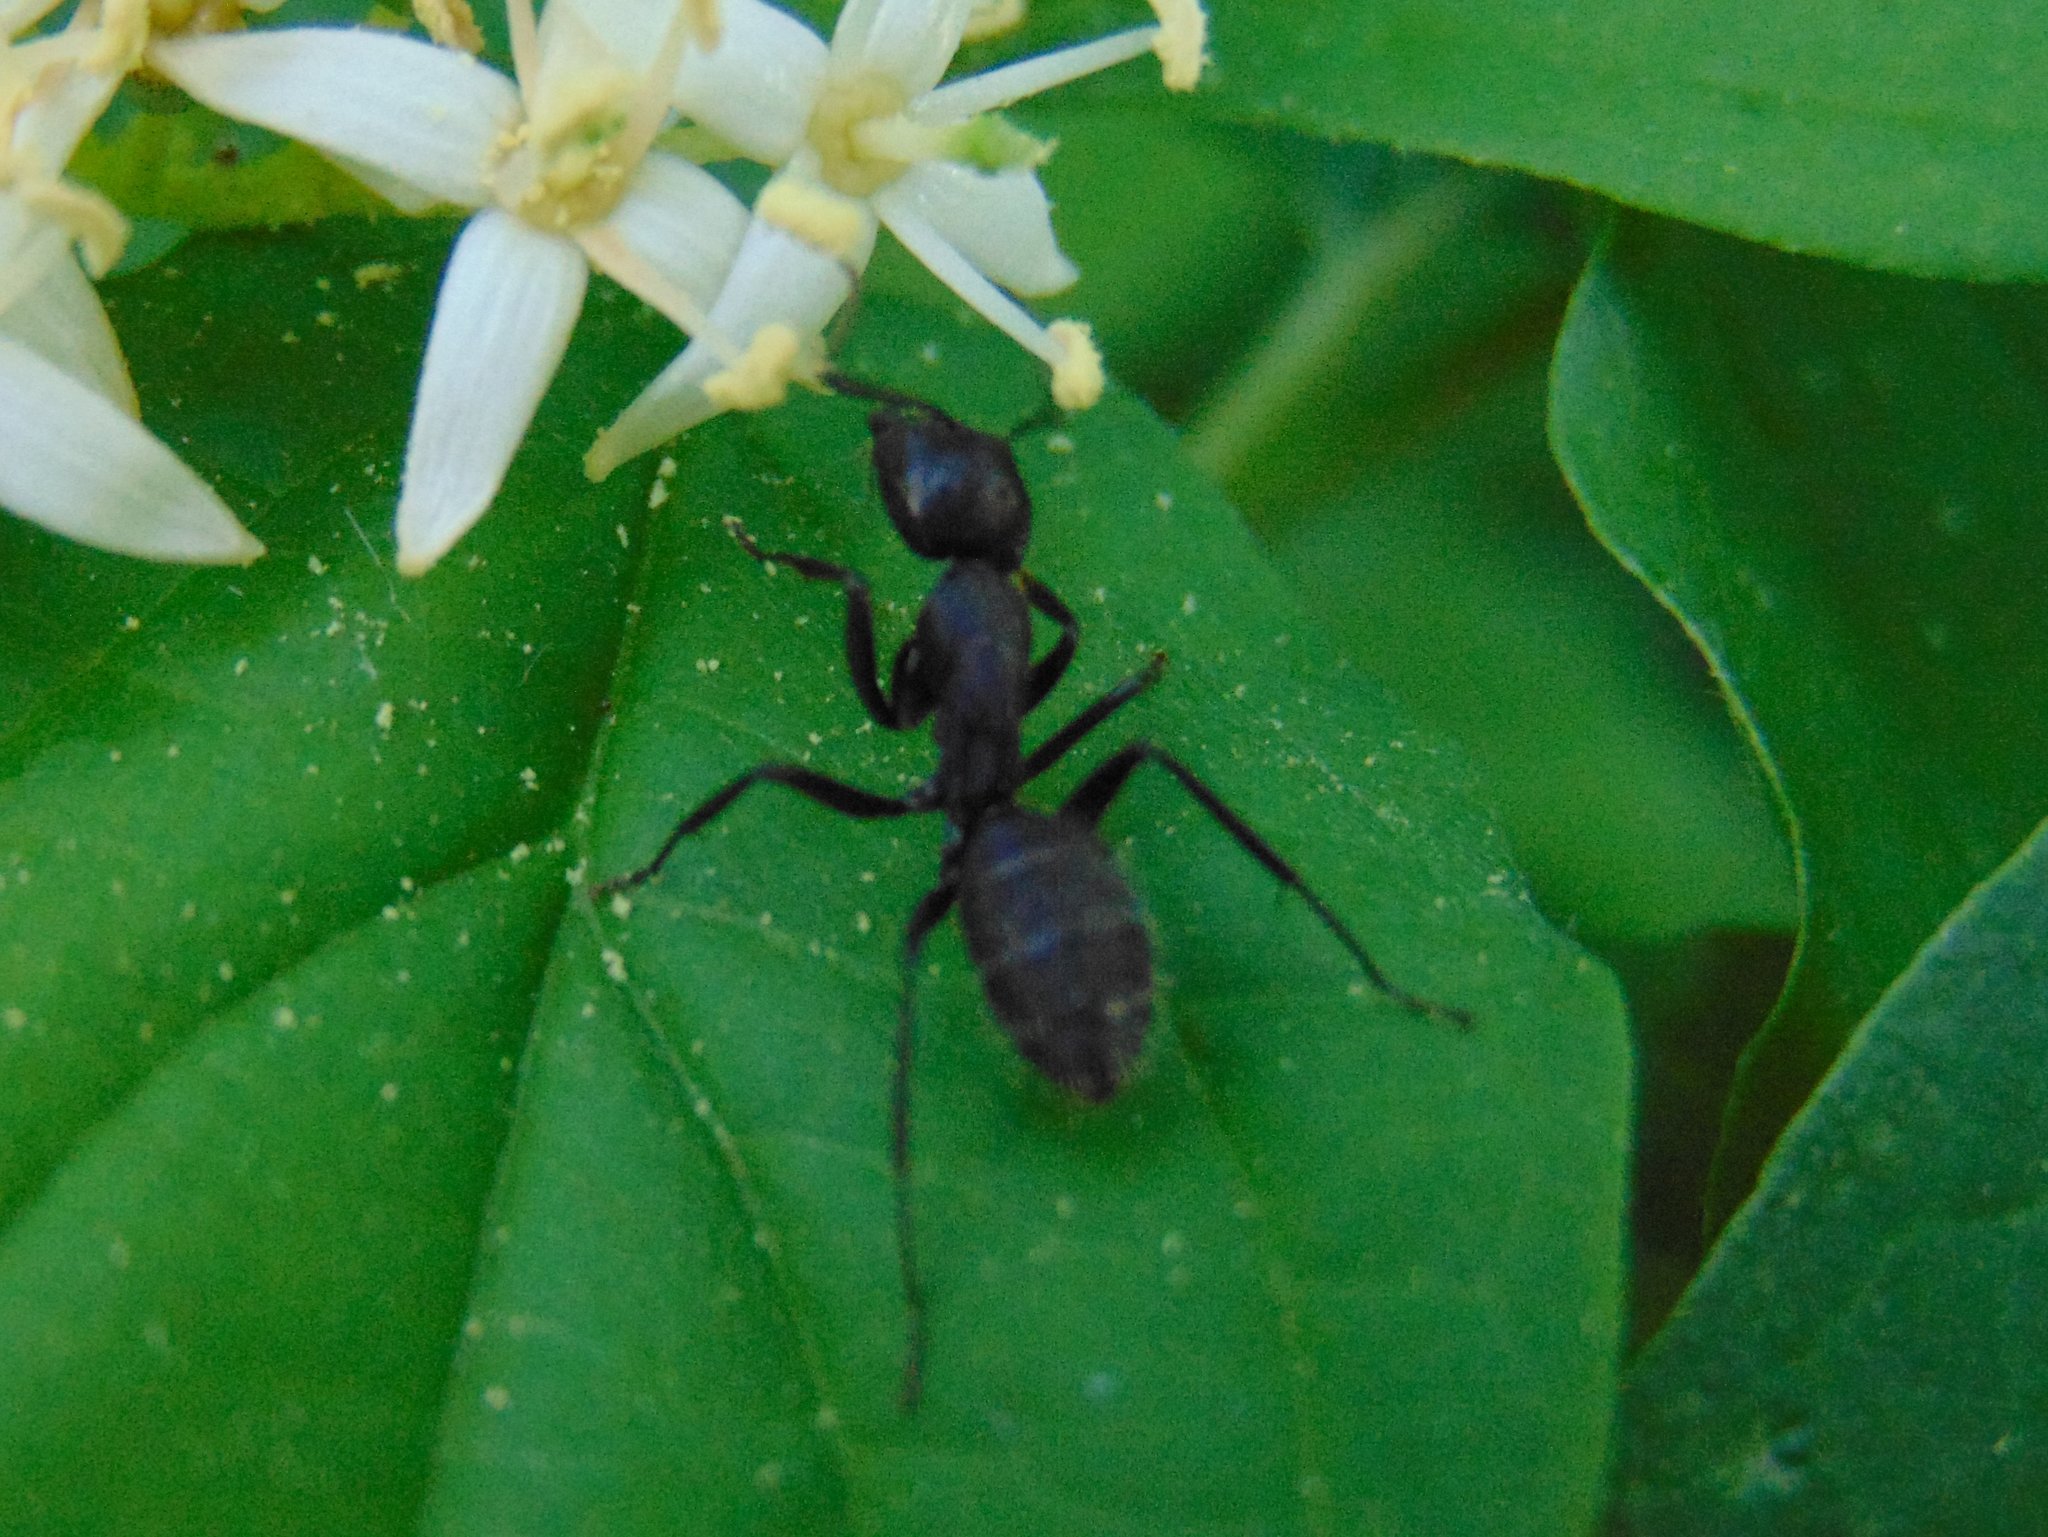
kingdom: Animalia
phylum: Arthropoda
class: Insecta
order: Hymenoptera
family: Formicidae
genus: Camponotus
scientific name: Camponotus vagus
